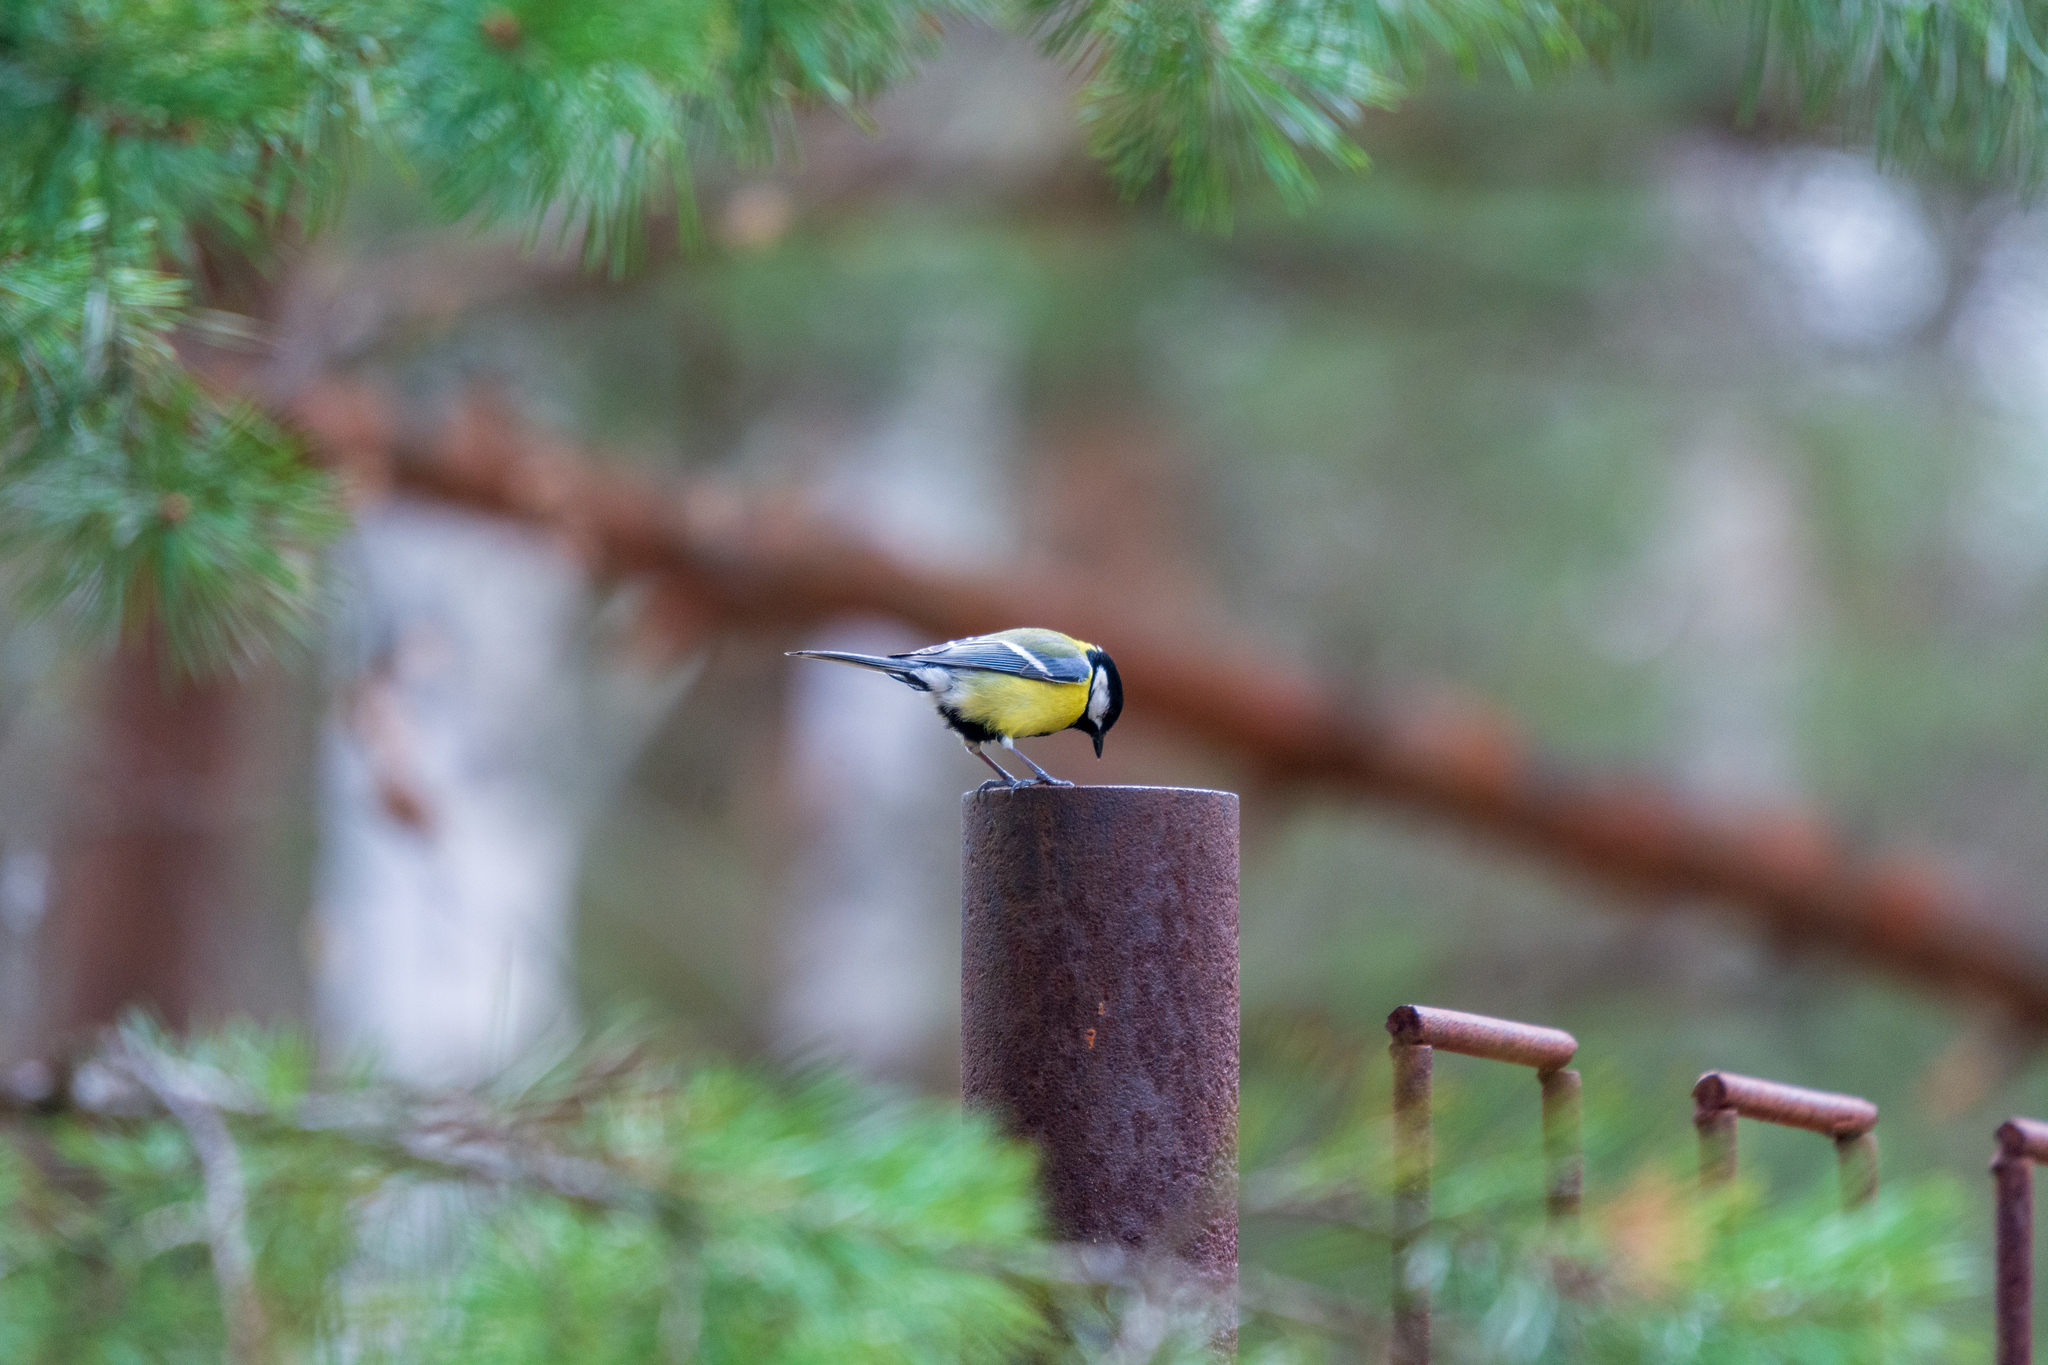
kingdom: Animalia
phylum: Chordata
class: Aves
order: Passeriformes
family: Paridae
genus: Parus
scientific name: Parus major
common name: Great tit
